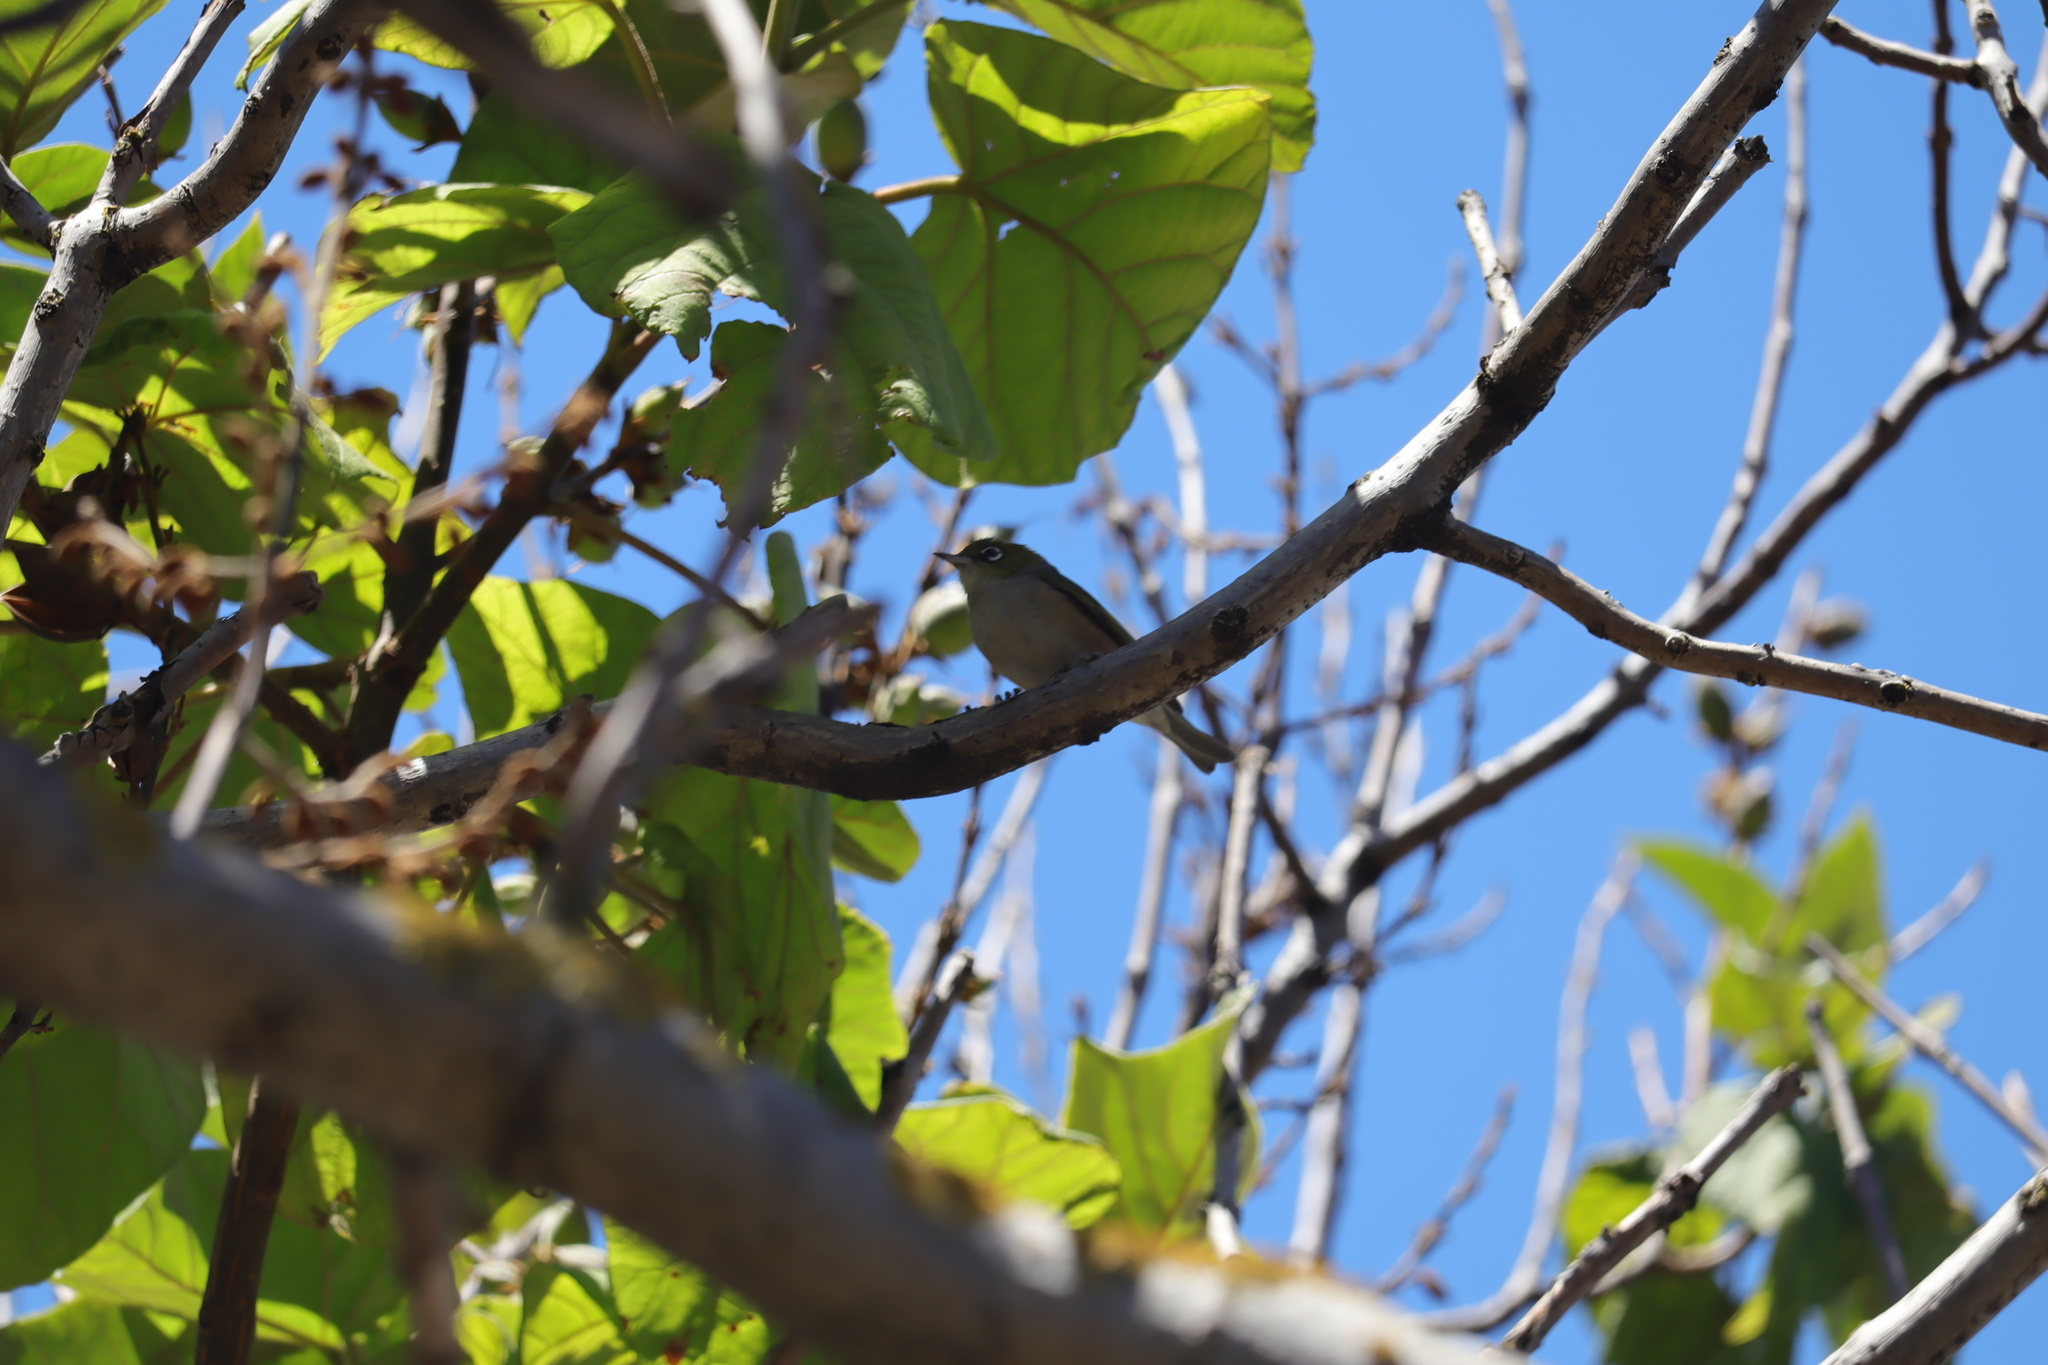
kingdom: Animalia
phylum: Chordata
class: Aves
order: Passeriformes
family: Zosteropidae
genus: Zosterops
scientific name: Zosterops lateralis
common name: Silvereye
